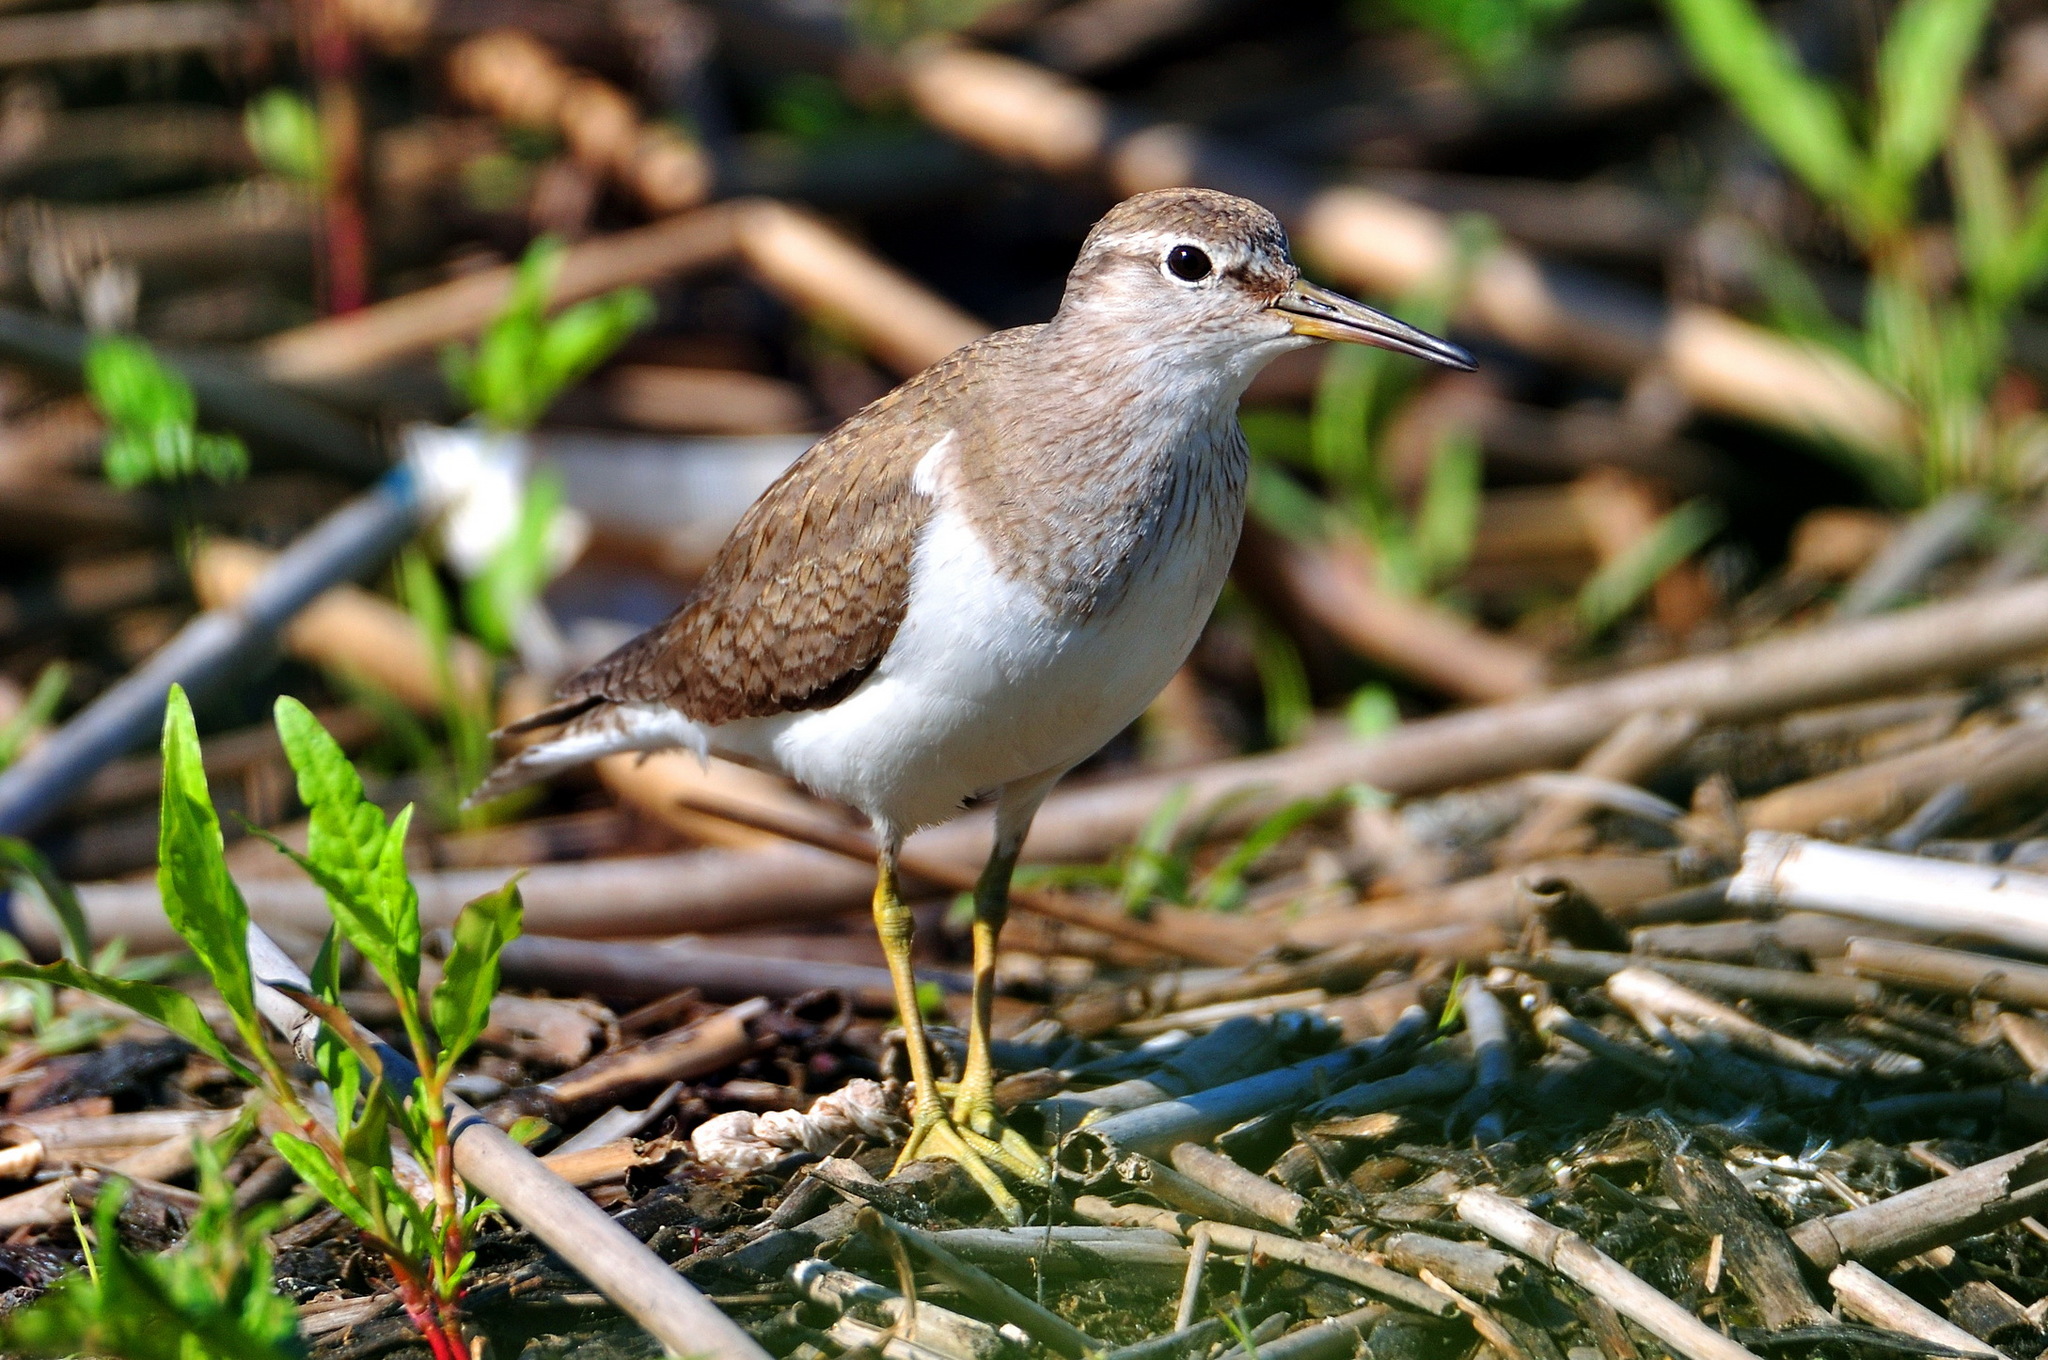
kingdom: Animalia
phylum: Chordata
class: Aves
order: Charadriiformes
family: Scolopacidae
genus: Actitis
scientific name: Actitis hypoleucos
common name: Common sandpiper
